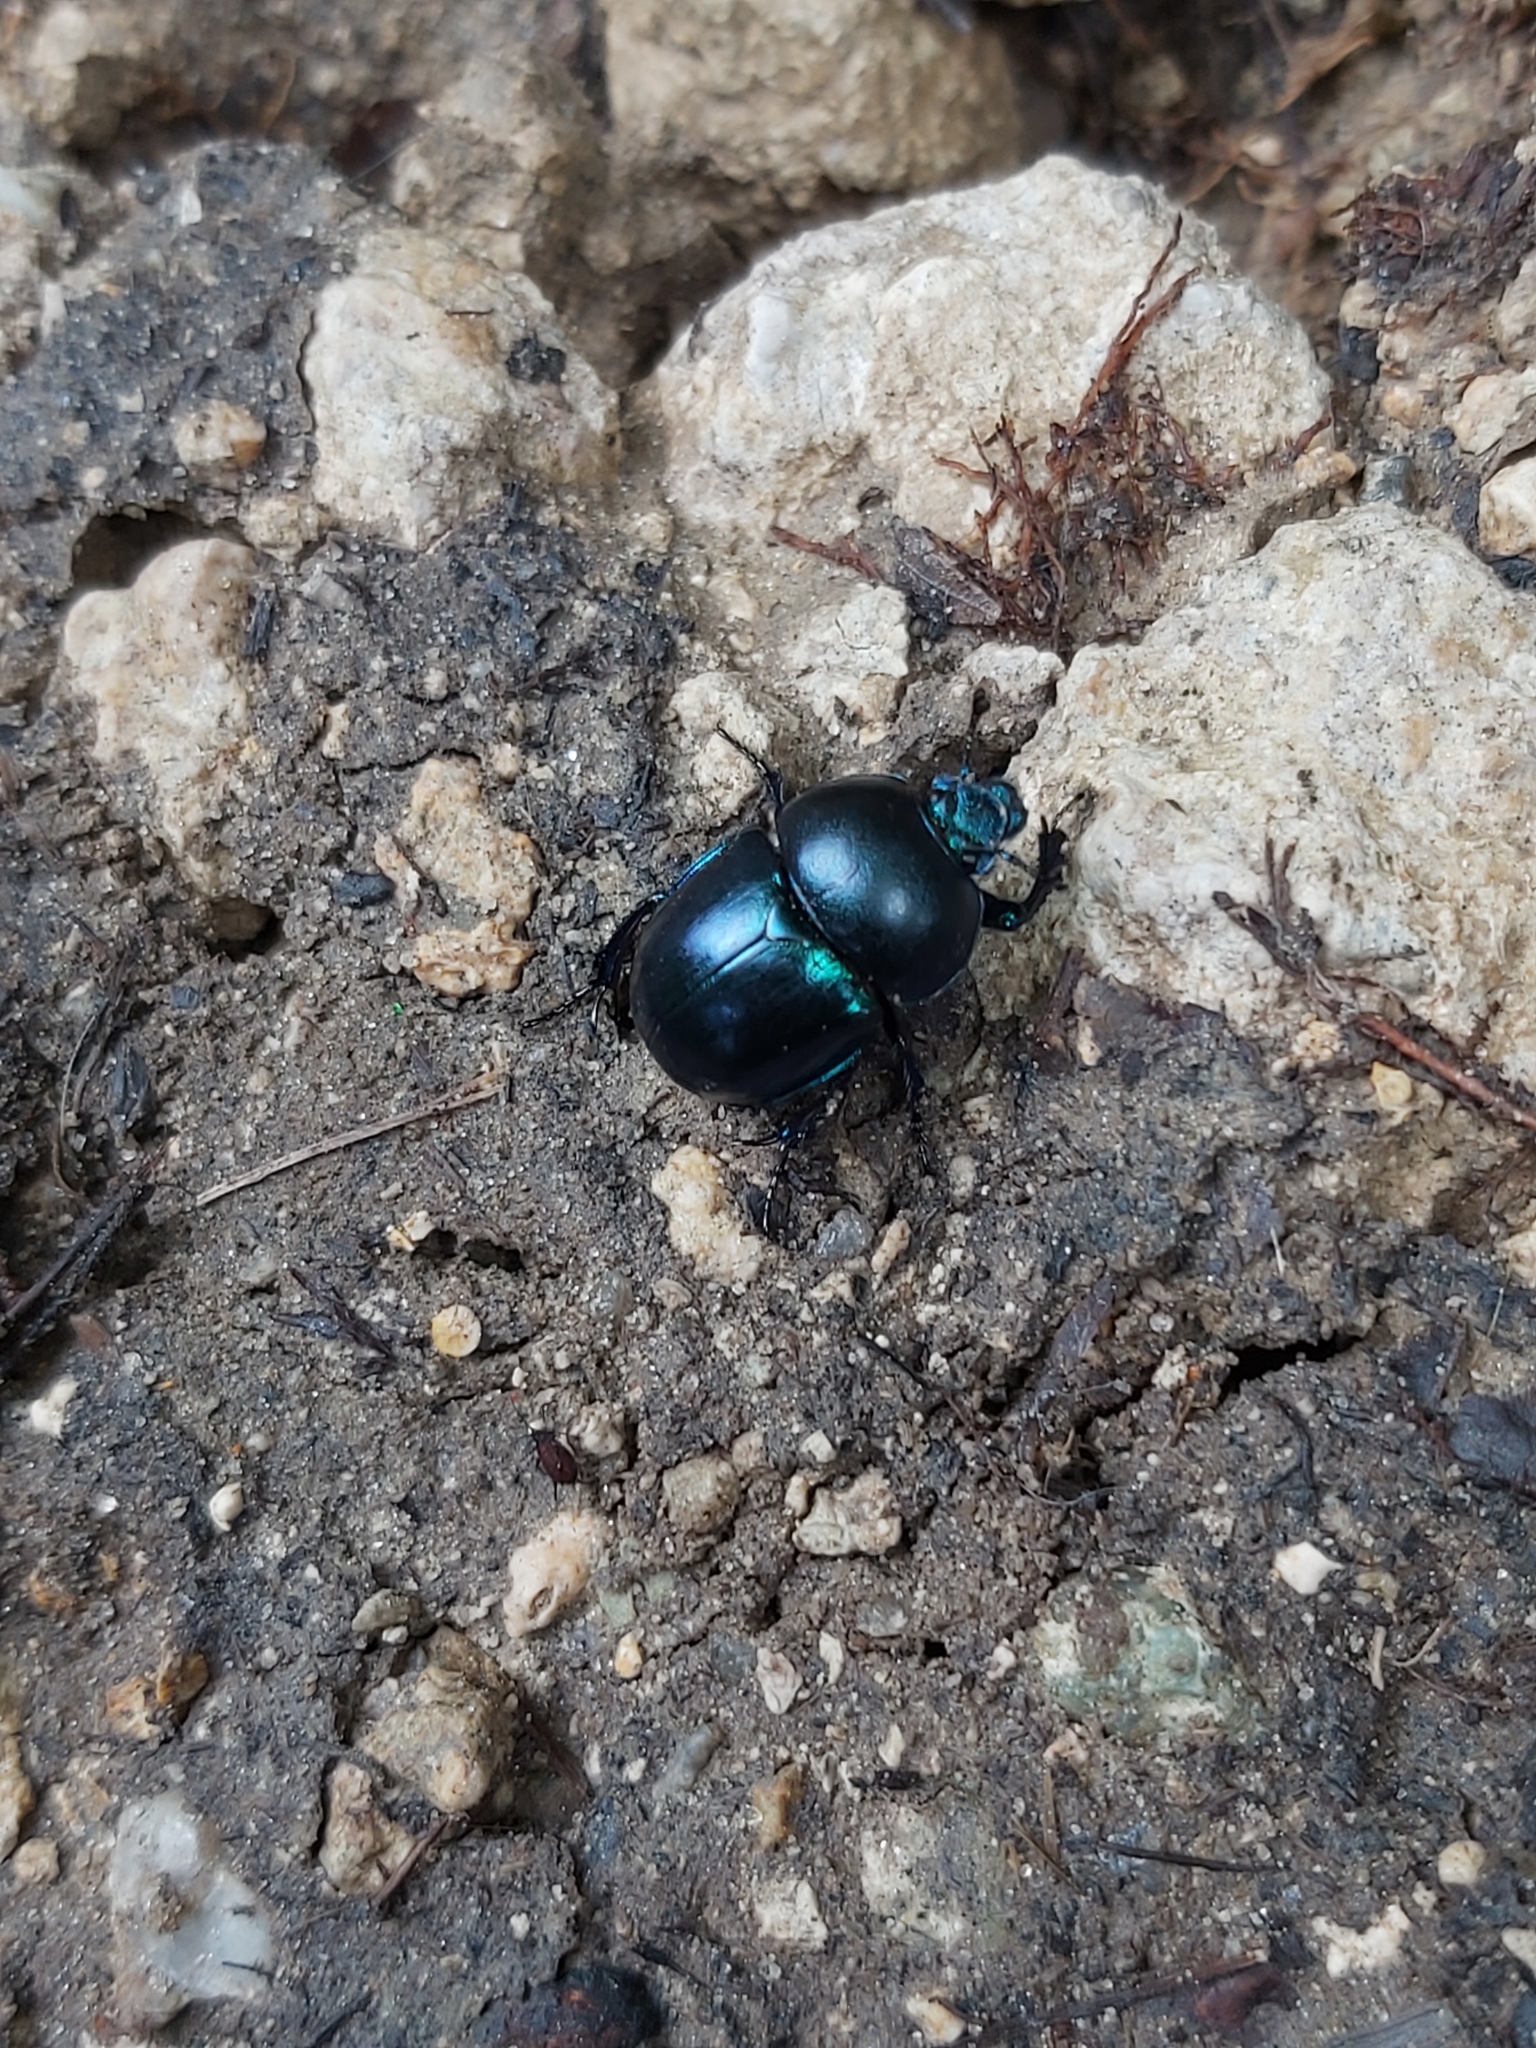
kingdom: Animalia
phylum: Arthropoda
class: Insecta
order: Coleoptera
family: Geotrupidae
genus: Trypocopris
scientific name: Trypocopris vernalis
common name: Spring dumbledor
